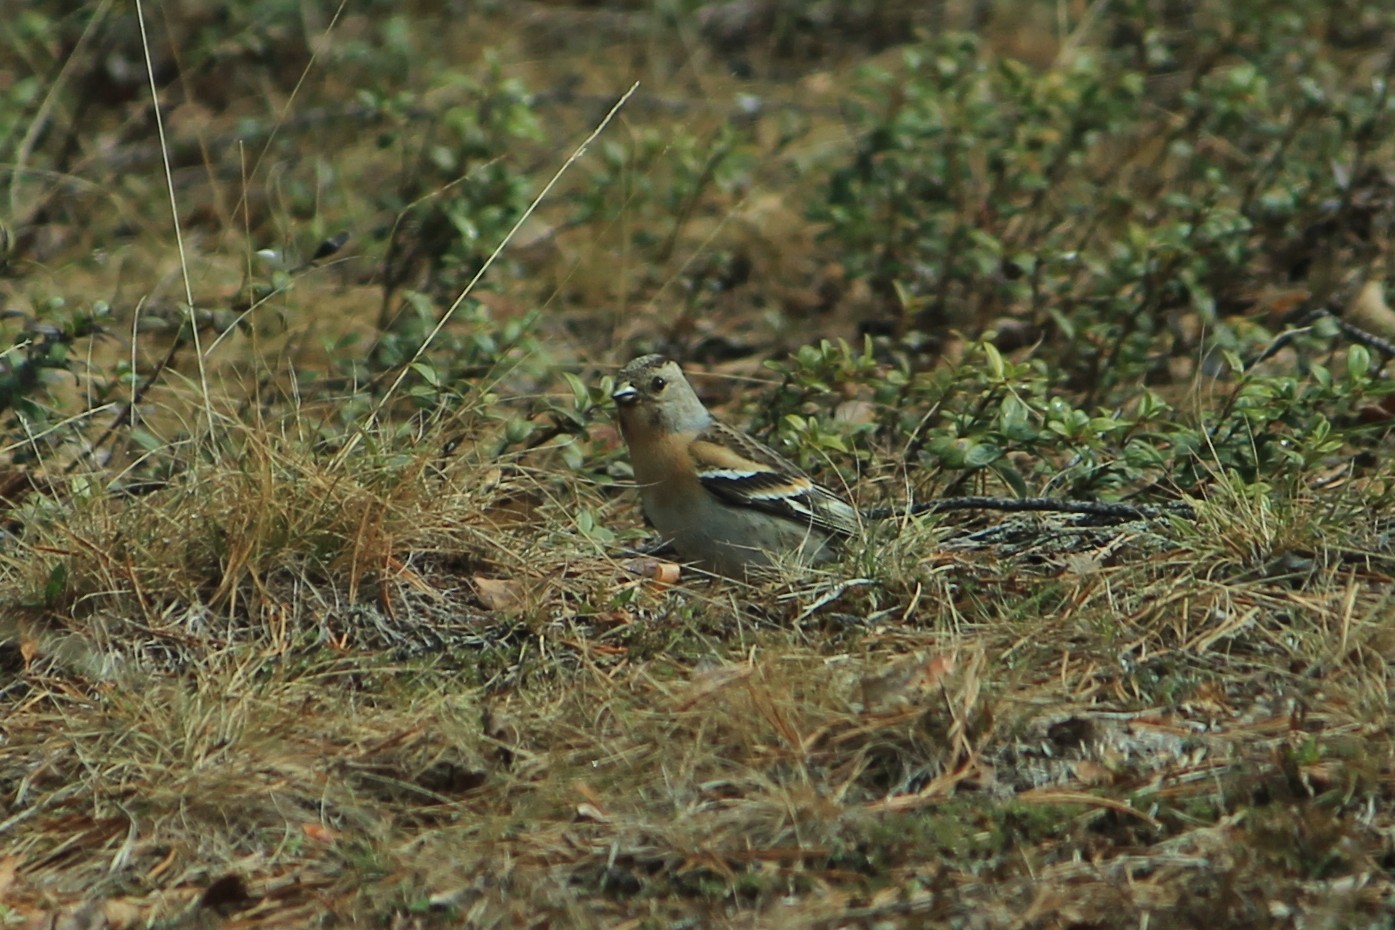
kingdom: Animalia
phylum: Chordata
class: Aves
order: Passeriformes
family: Fringillidae
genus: Fringilla
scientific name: Fringilla montifringilla
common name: Brambling
